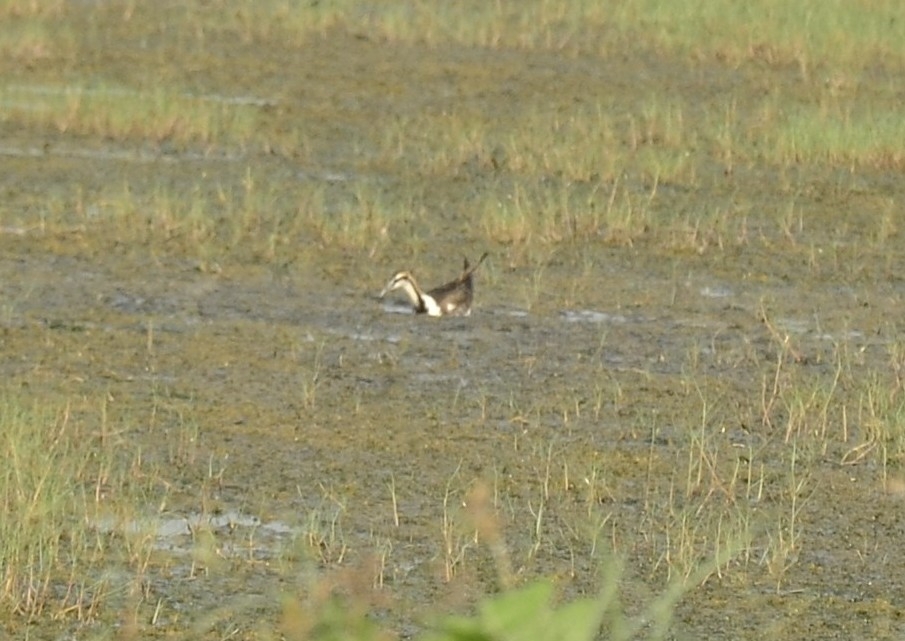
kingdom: Animalia
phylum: Chordata
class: Aves
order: Charadriiformes
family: Jacanidae
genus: Hydrophasianus
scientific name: Hydrophasianus chirurgus
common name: Pheasant-tailed jacana
